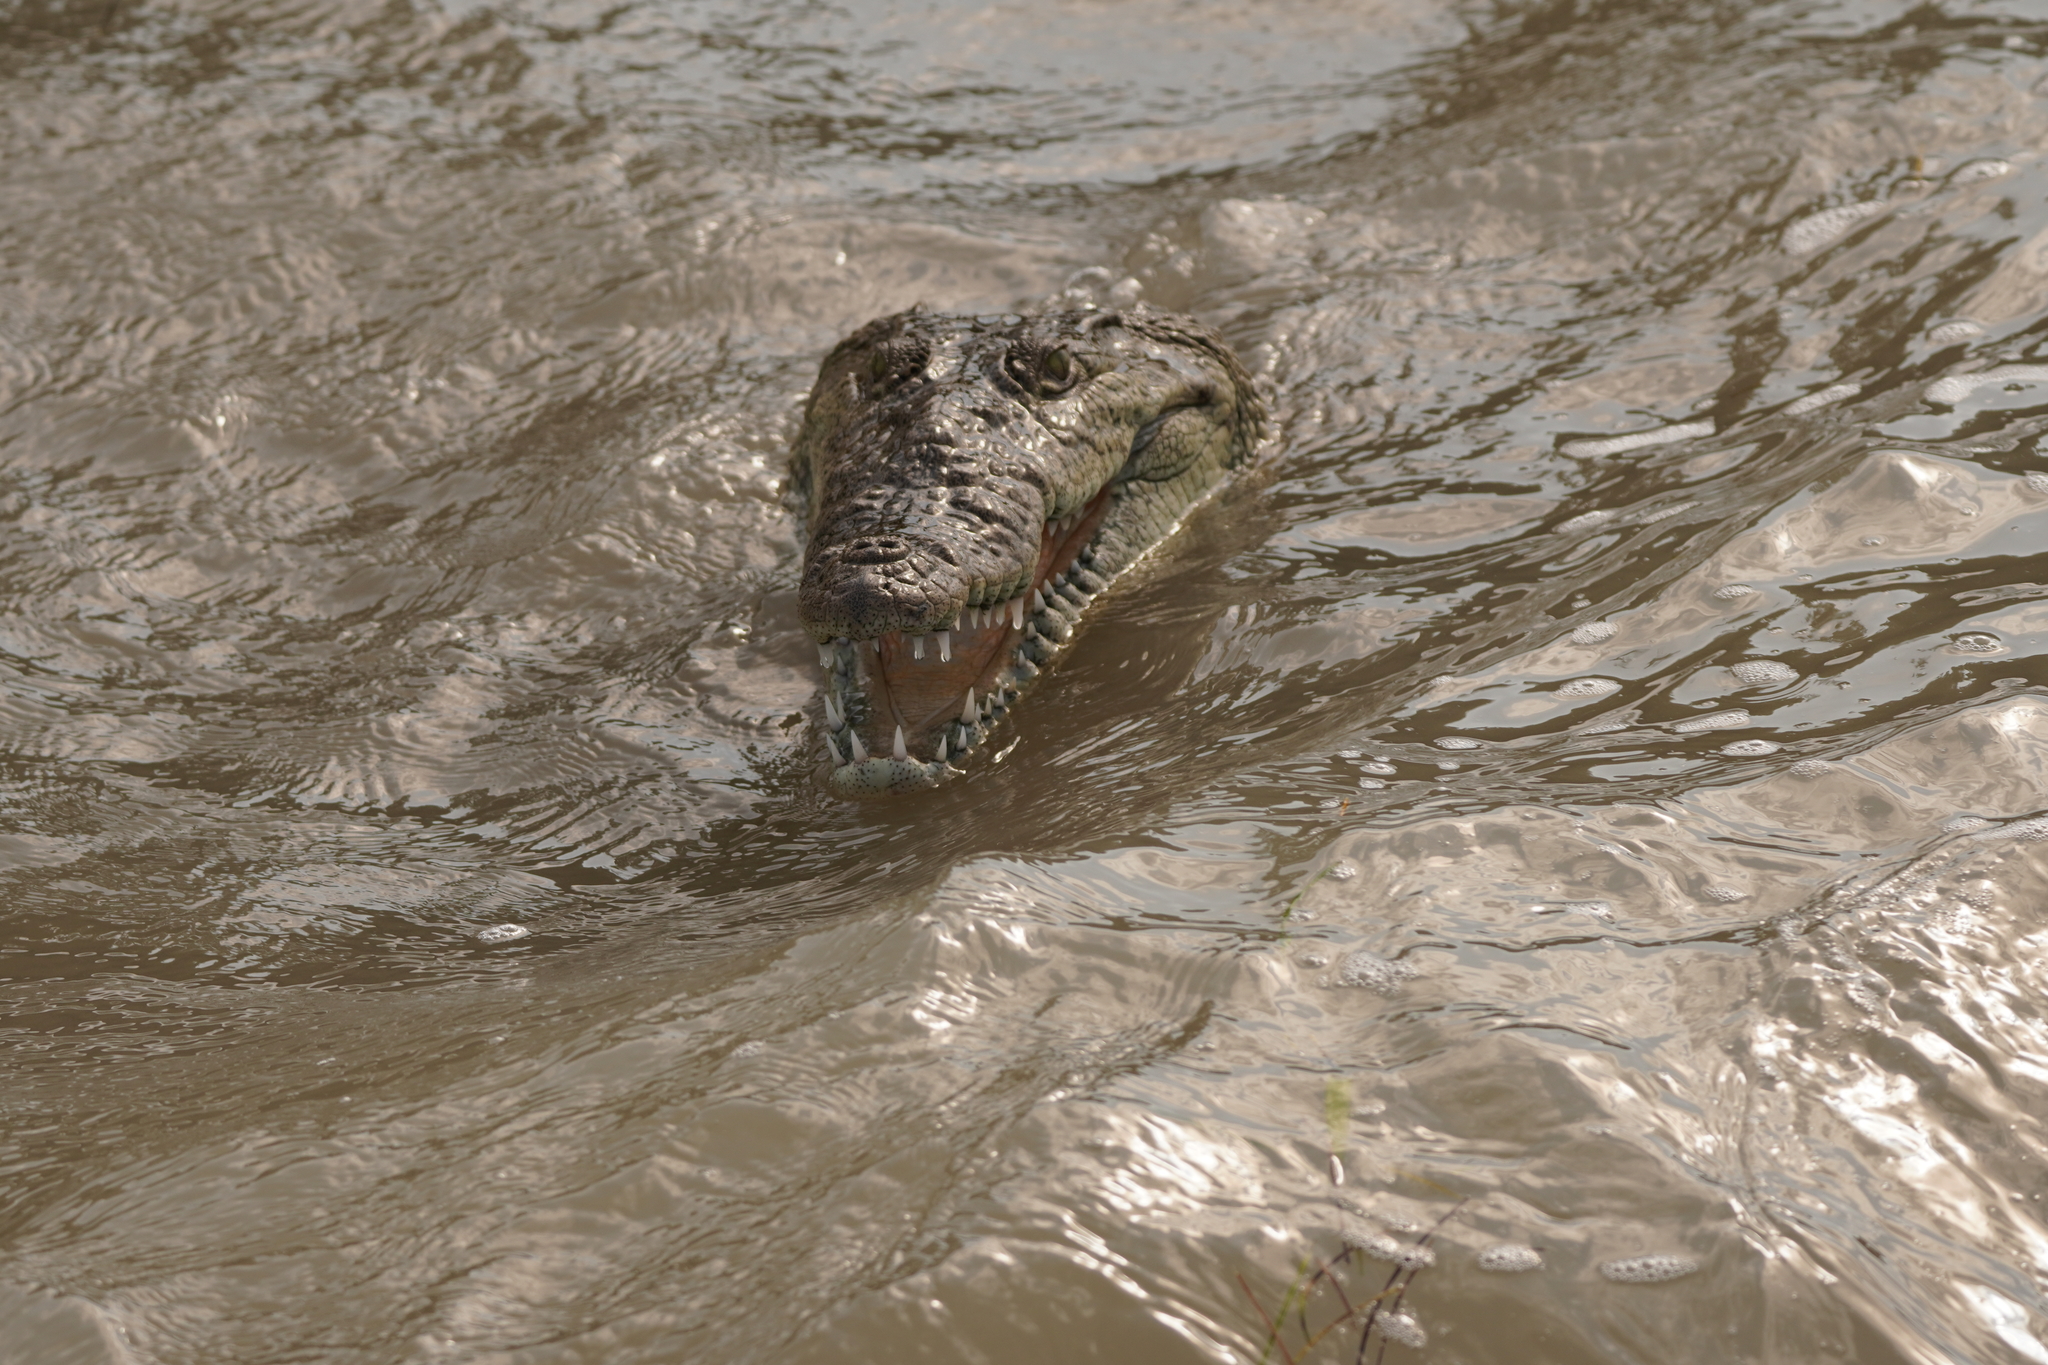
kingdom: Animalia
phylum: Chordata
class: Crocodylia
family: Crocodylidae
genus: Crocodylus
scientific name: Crocodylus moreletii
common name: Morelet's crocodile
